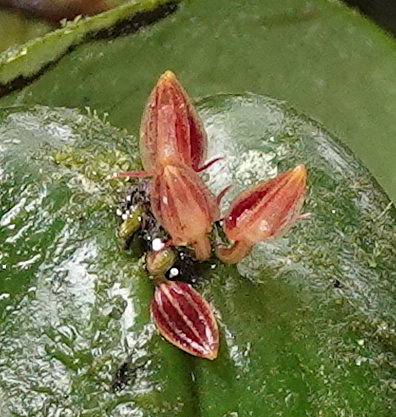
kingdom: Plantae
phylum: Tracheophyta
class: Liliopsida
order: Asparagales
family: Orchidaceae
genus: Pleurothallis
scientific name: Pleurothallis coriacardia
